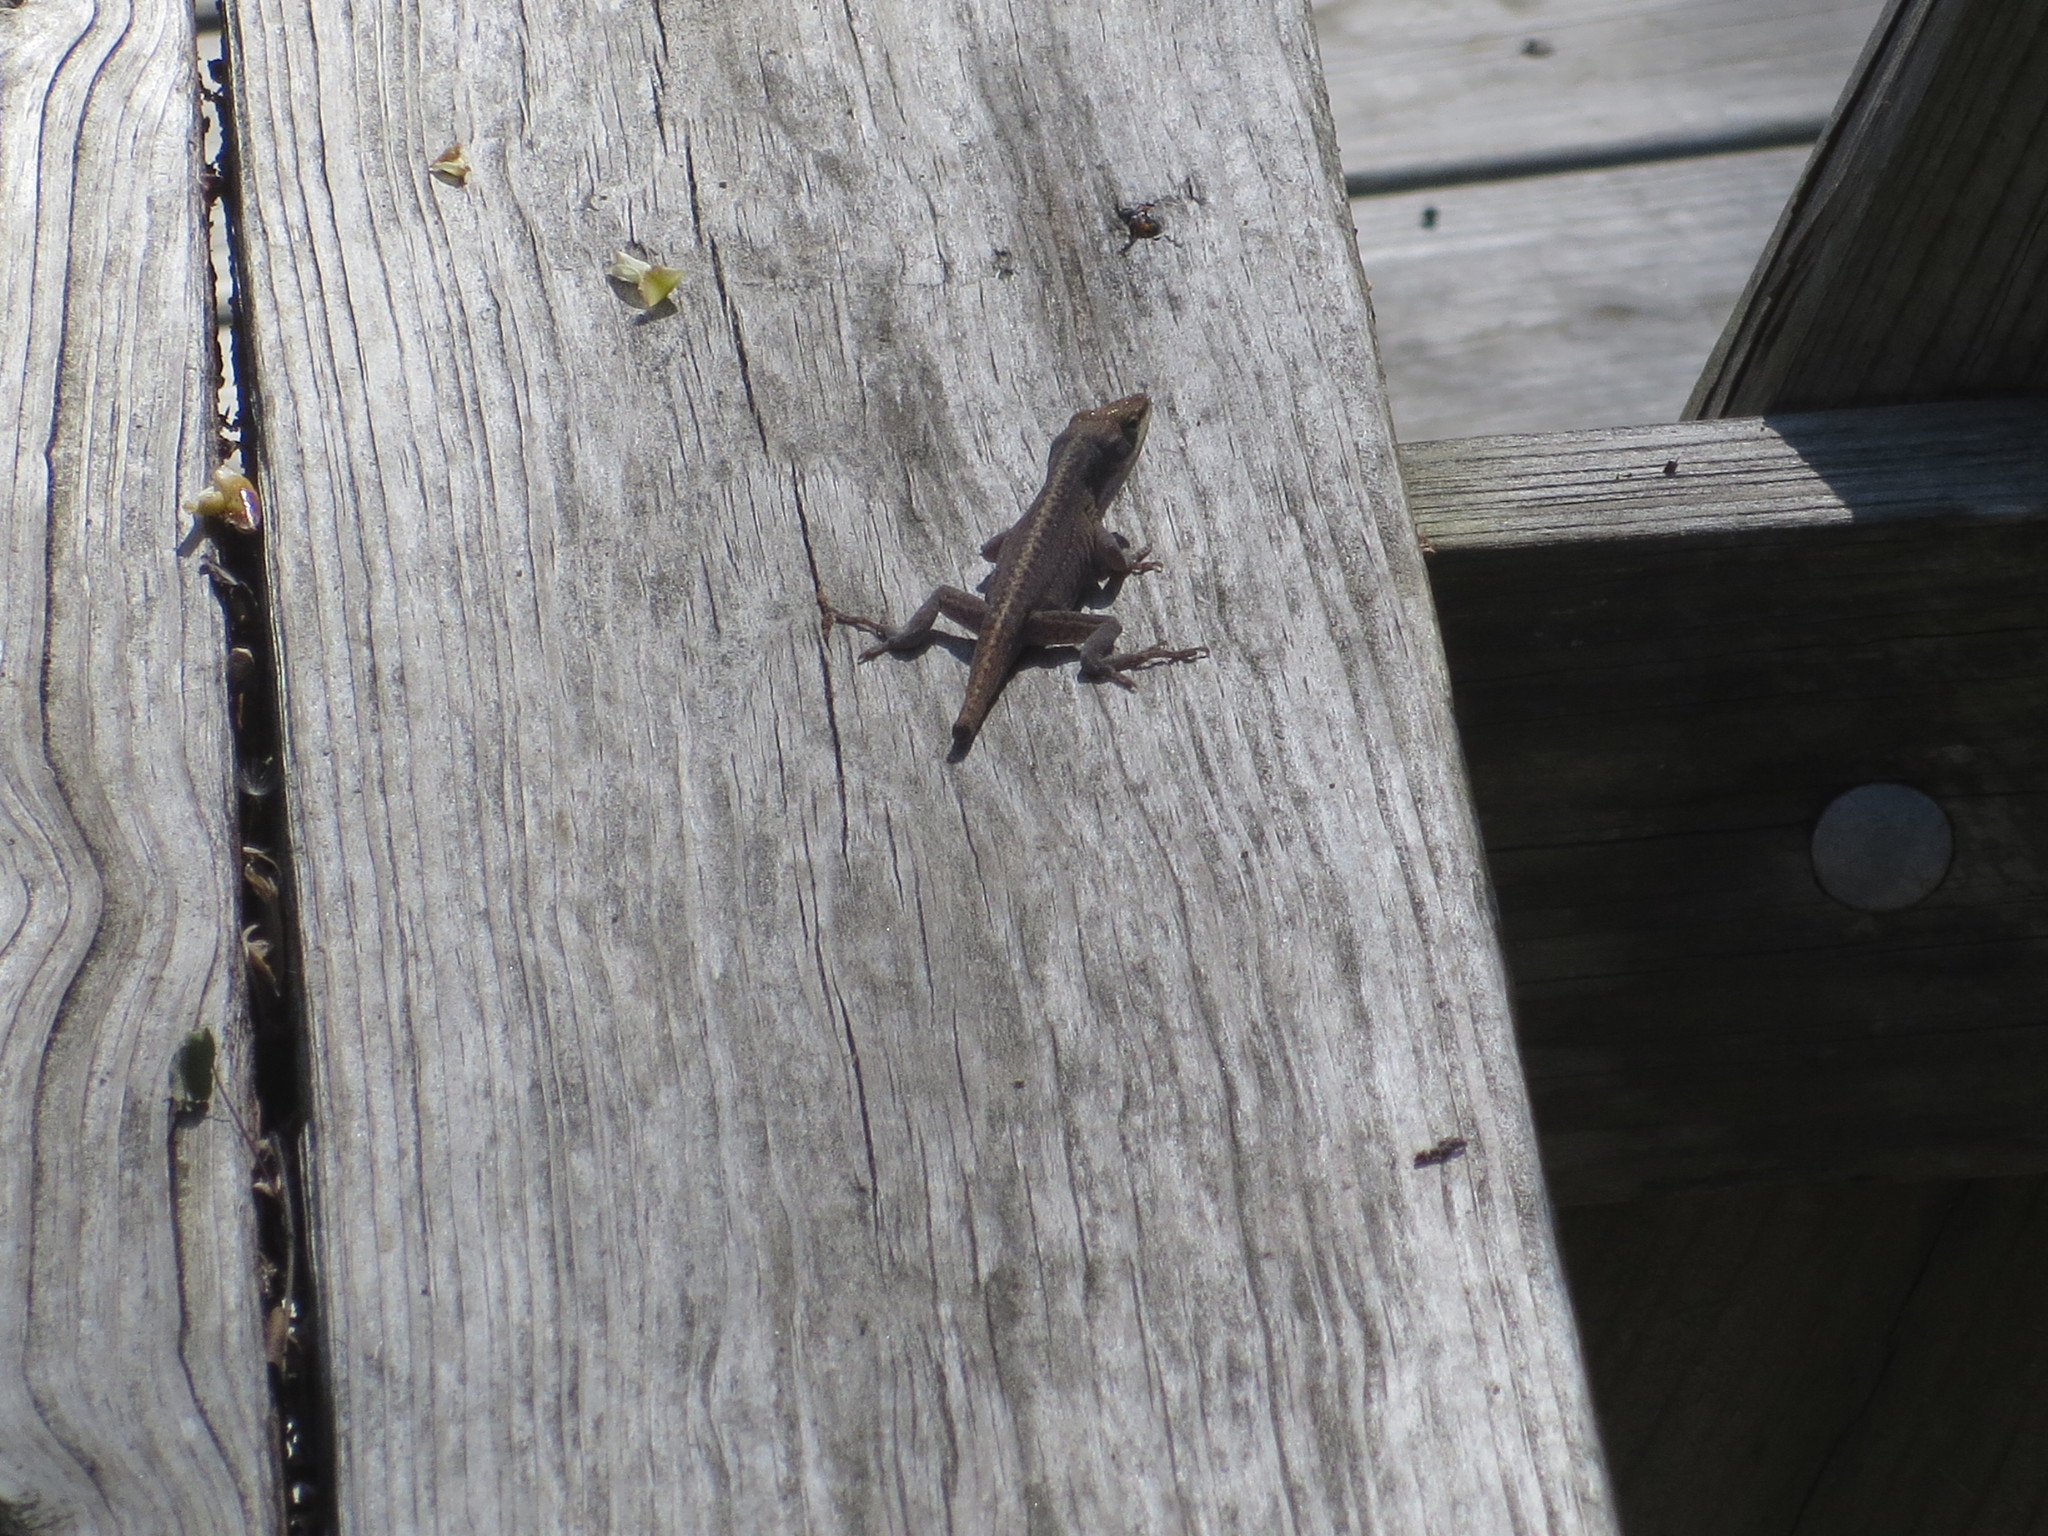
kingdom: Animalia
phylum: Chordata
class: Squamata
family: Dactyloidae
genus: Anolis
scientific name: Anolis carolinensis
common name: Green anole
